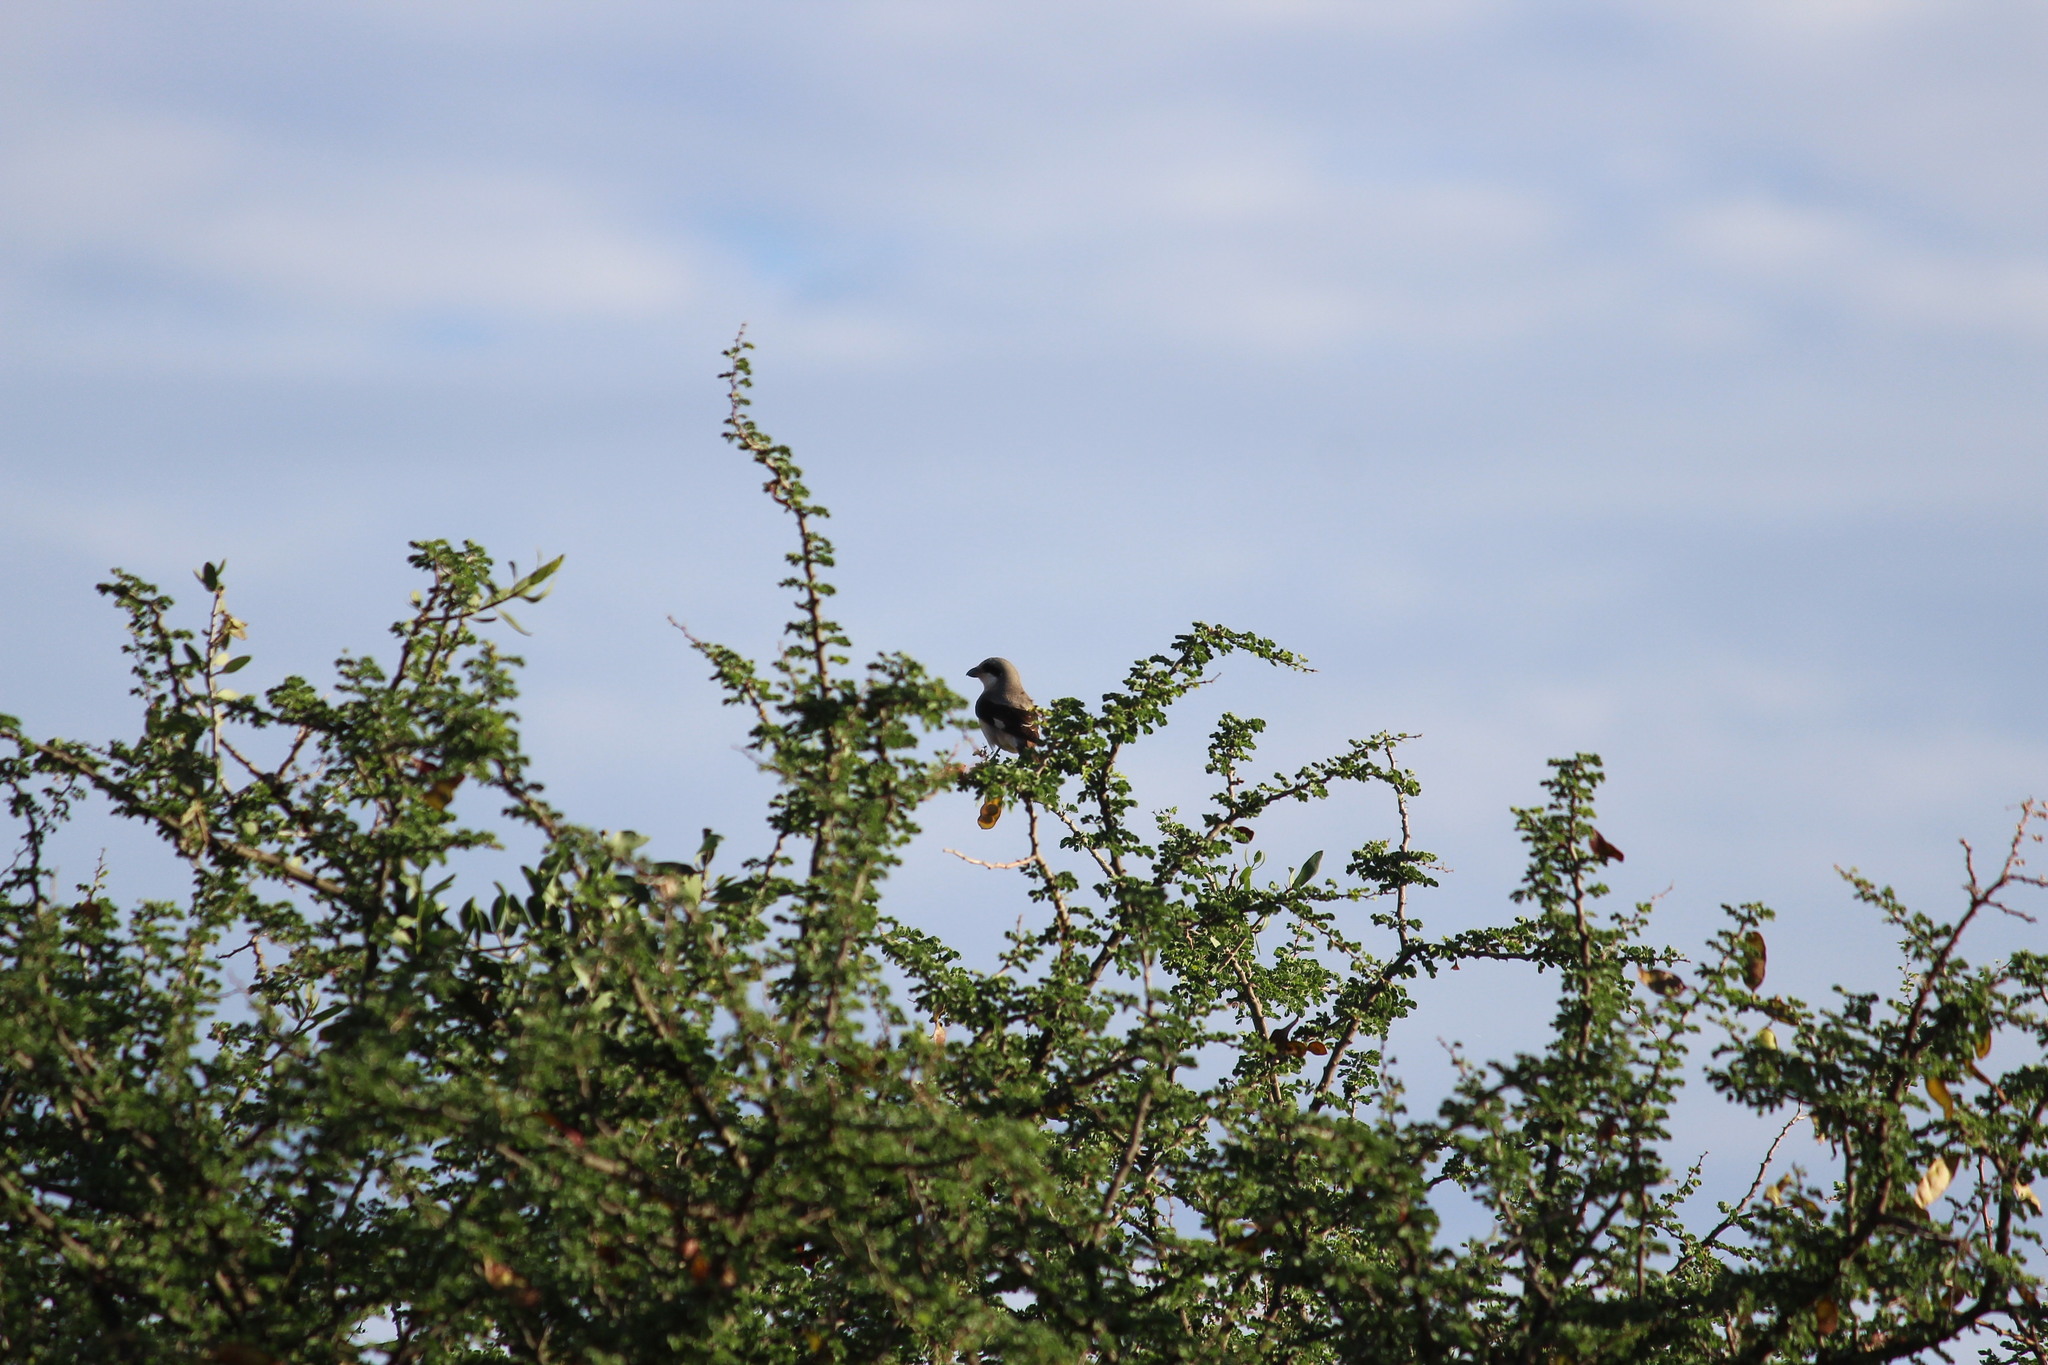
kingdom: Animalia
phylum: Chordata
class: Aves
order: Passeriformes
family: Laniidae
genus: Lanius
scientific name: Lanius minor
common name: Lesser grey shrike
